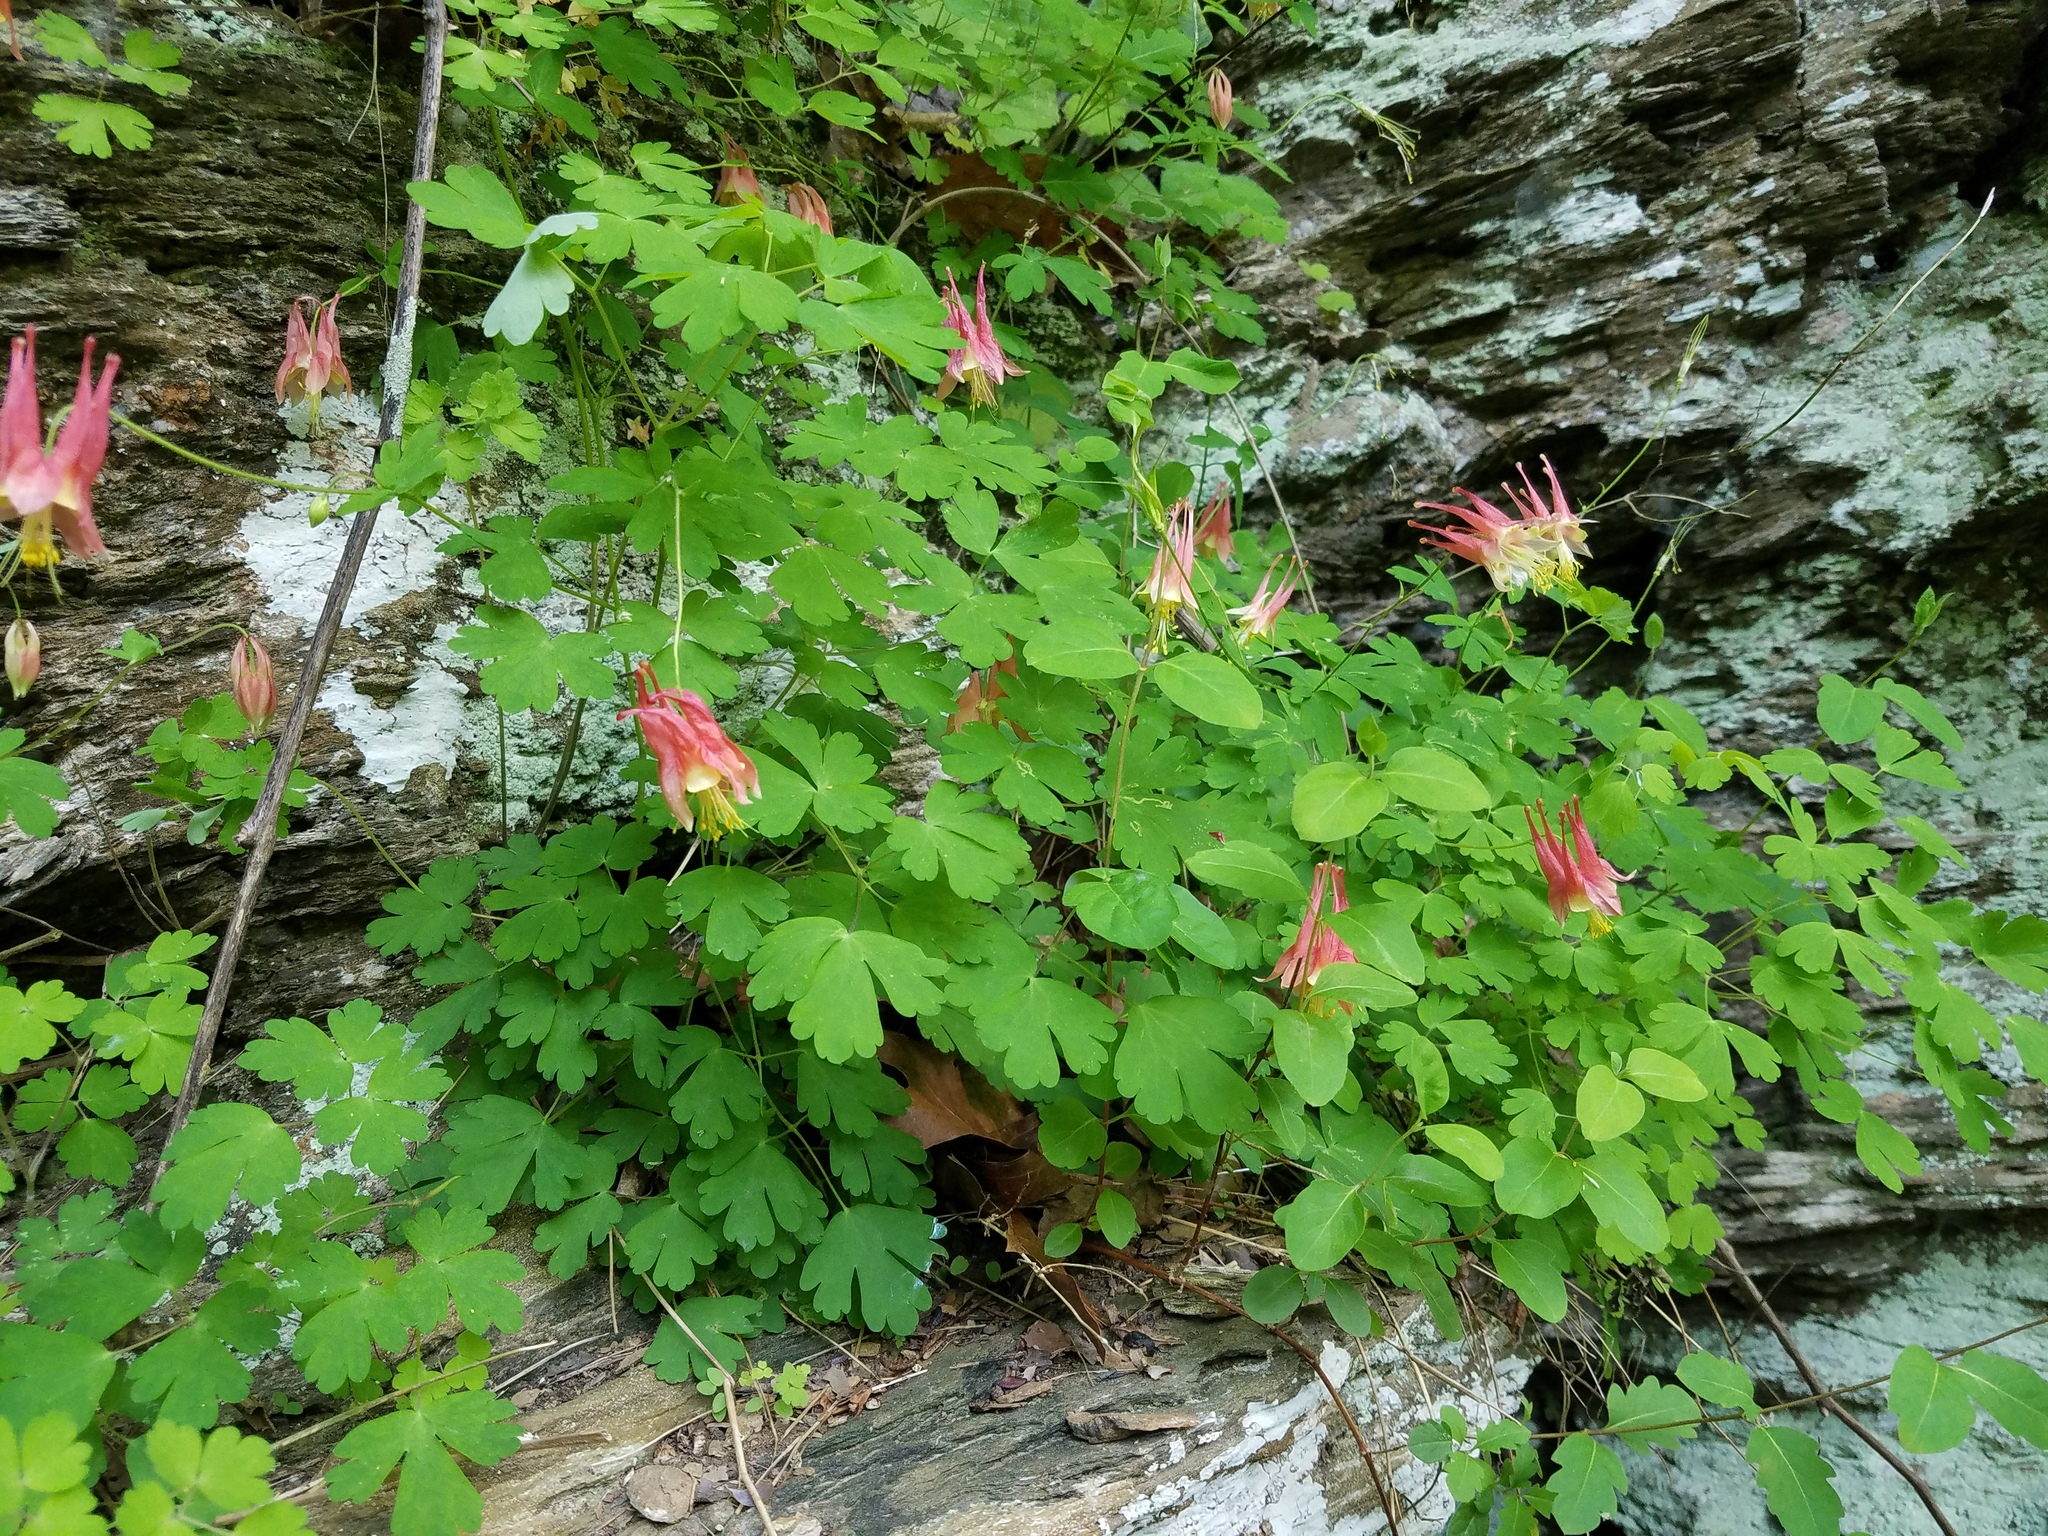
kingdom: Plantae
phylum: Tracheophyta
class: Magnoliopsida
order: Ranunculales
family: Ranunculaceae
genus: Aquilegia
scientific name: Aquilegia canadensis
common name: American columbine
